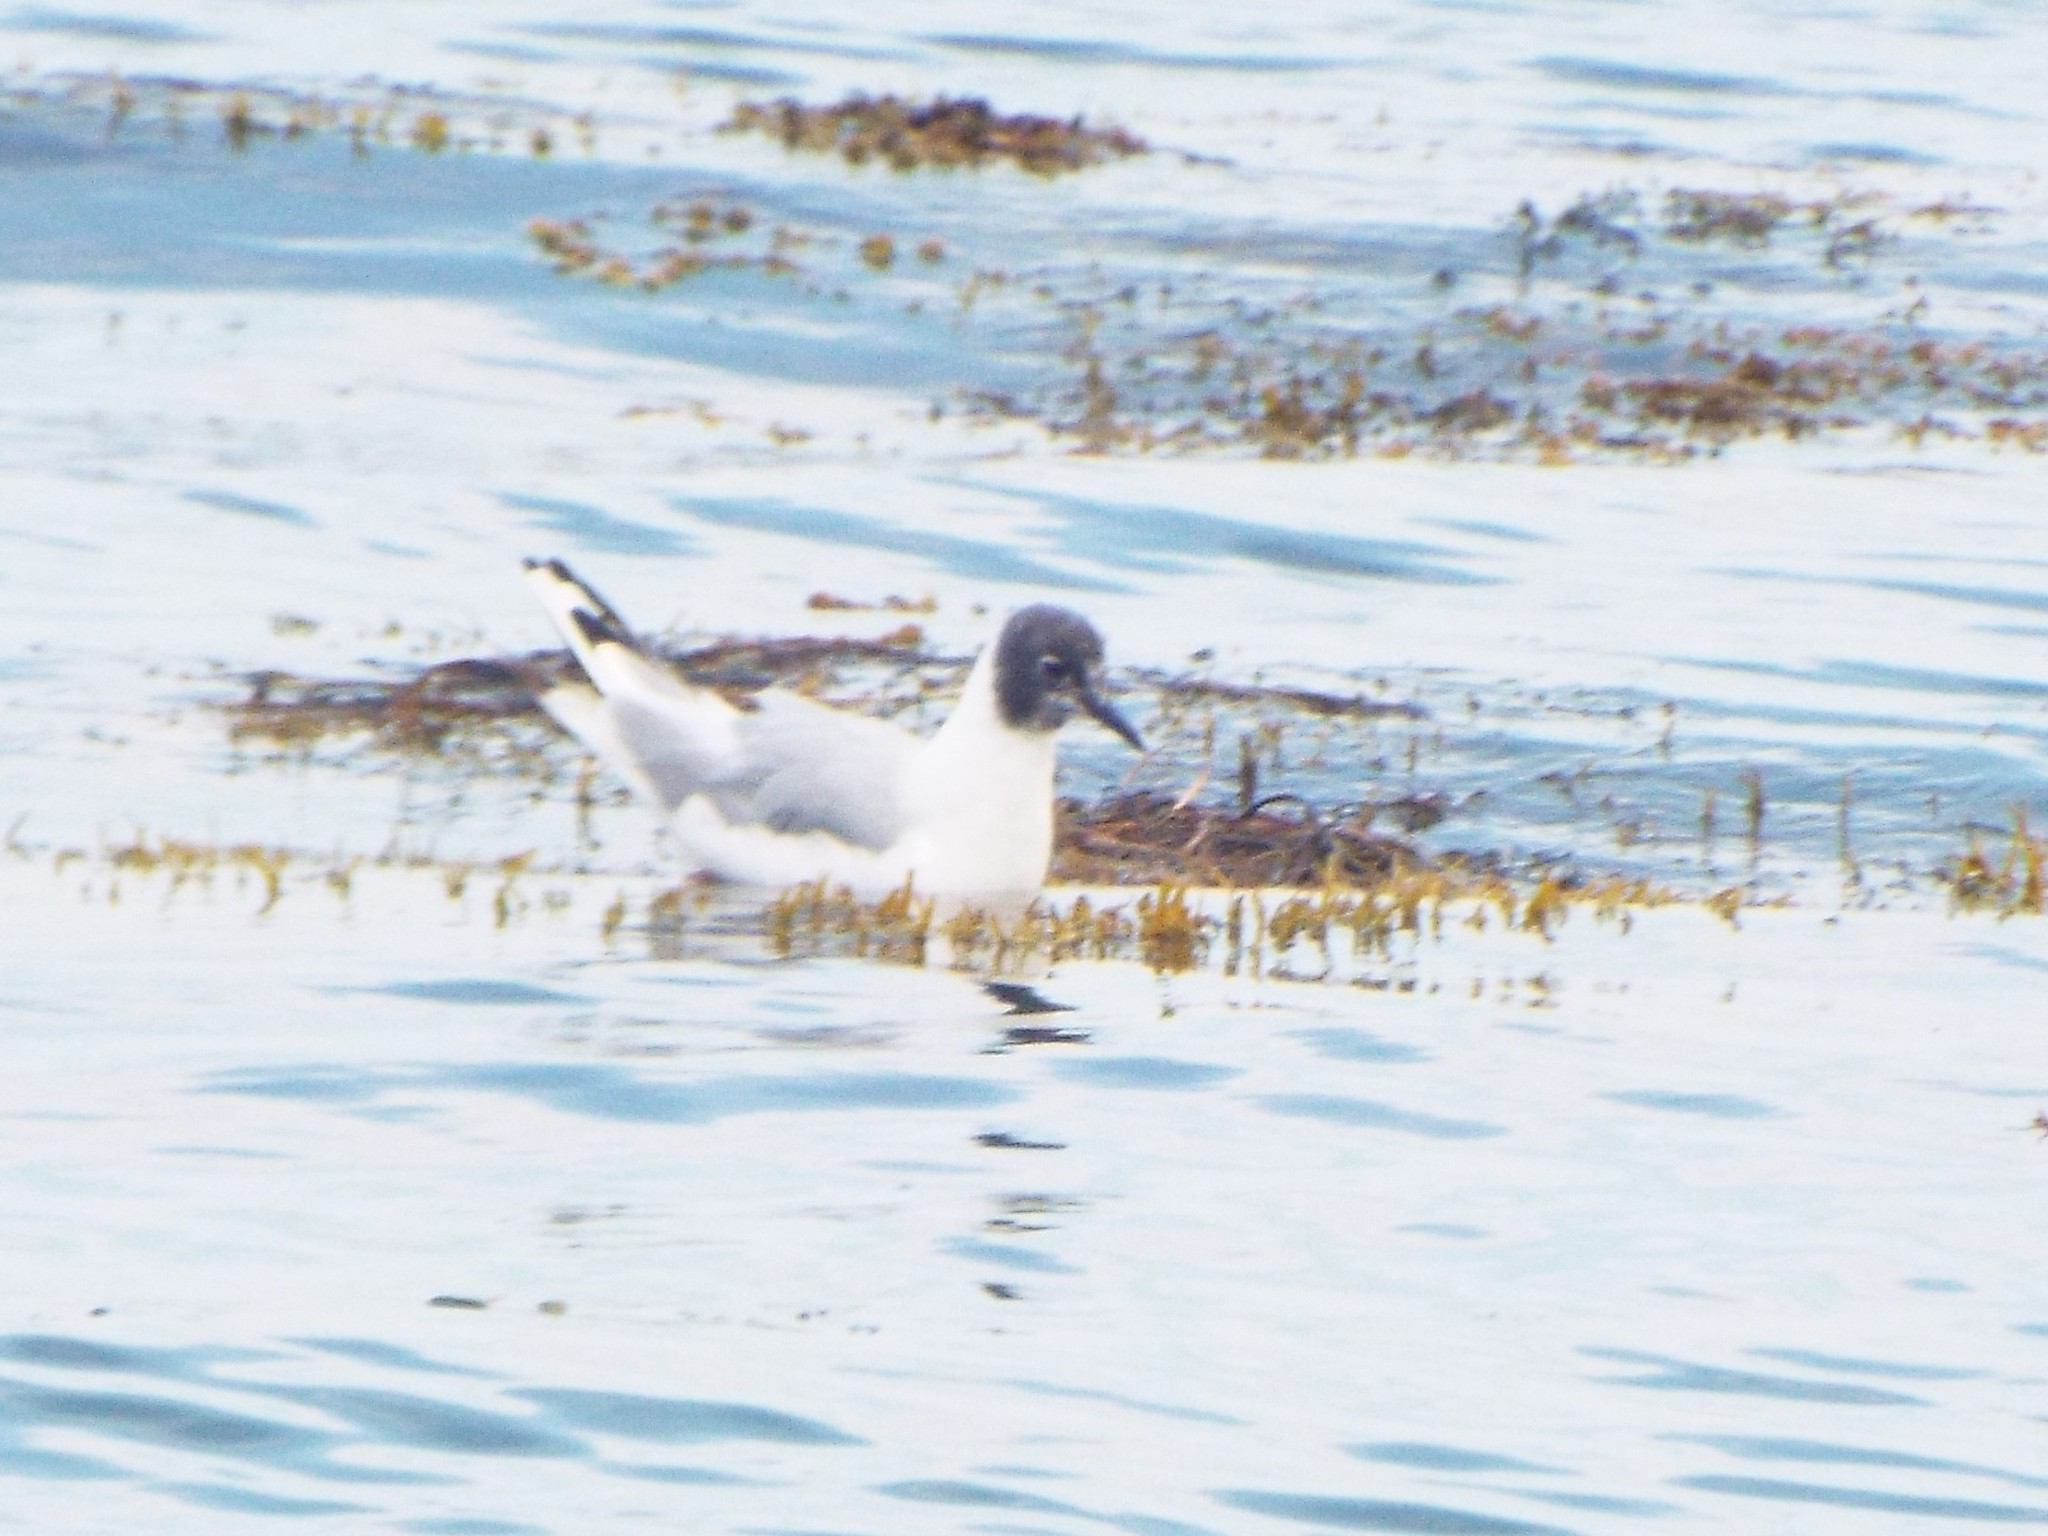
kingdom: Animalia
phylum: Chordata
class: Aves
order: Charadriiformes
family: Laridae
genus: Chroicocephalus
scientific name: Chroicocephalus philadelphia
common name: Bonaparte's gull
